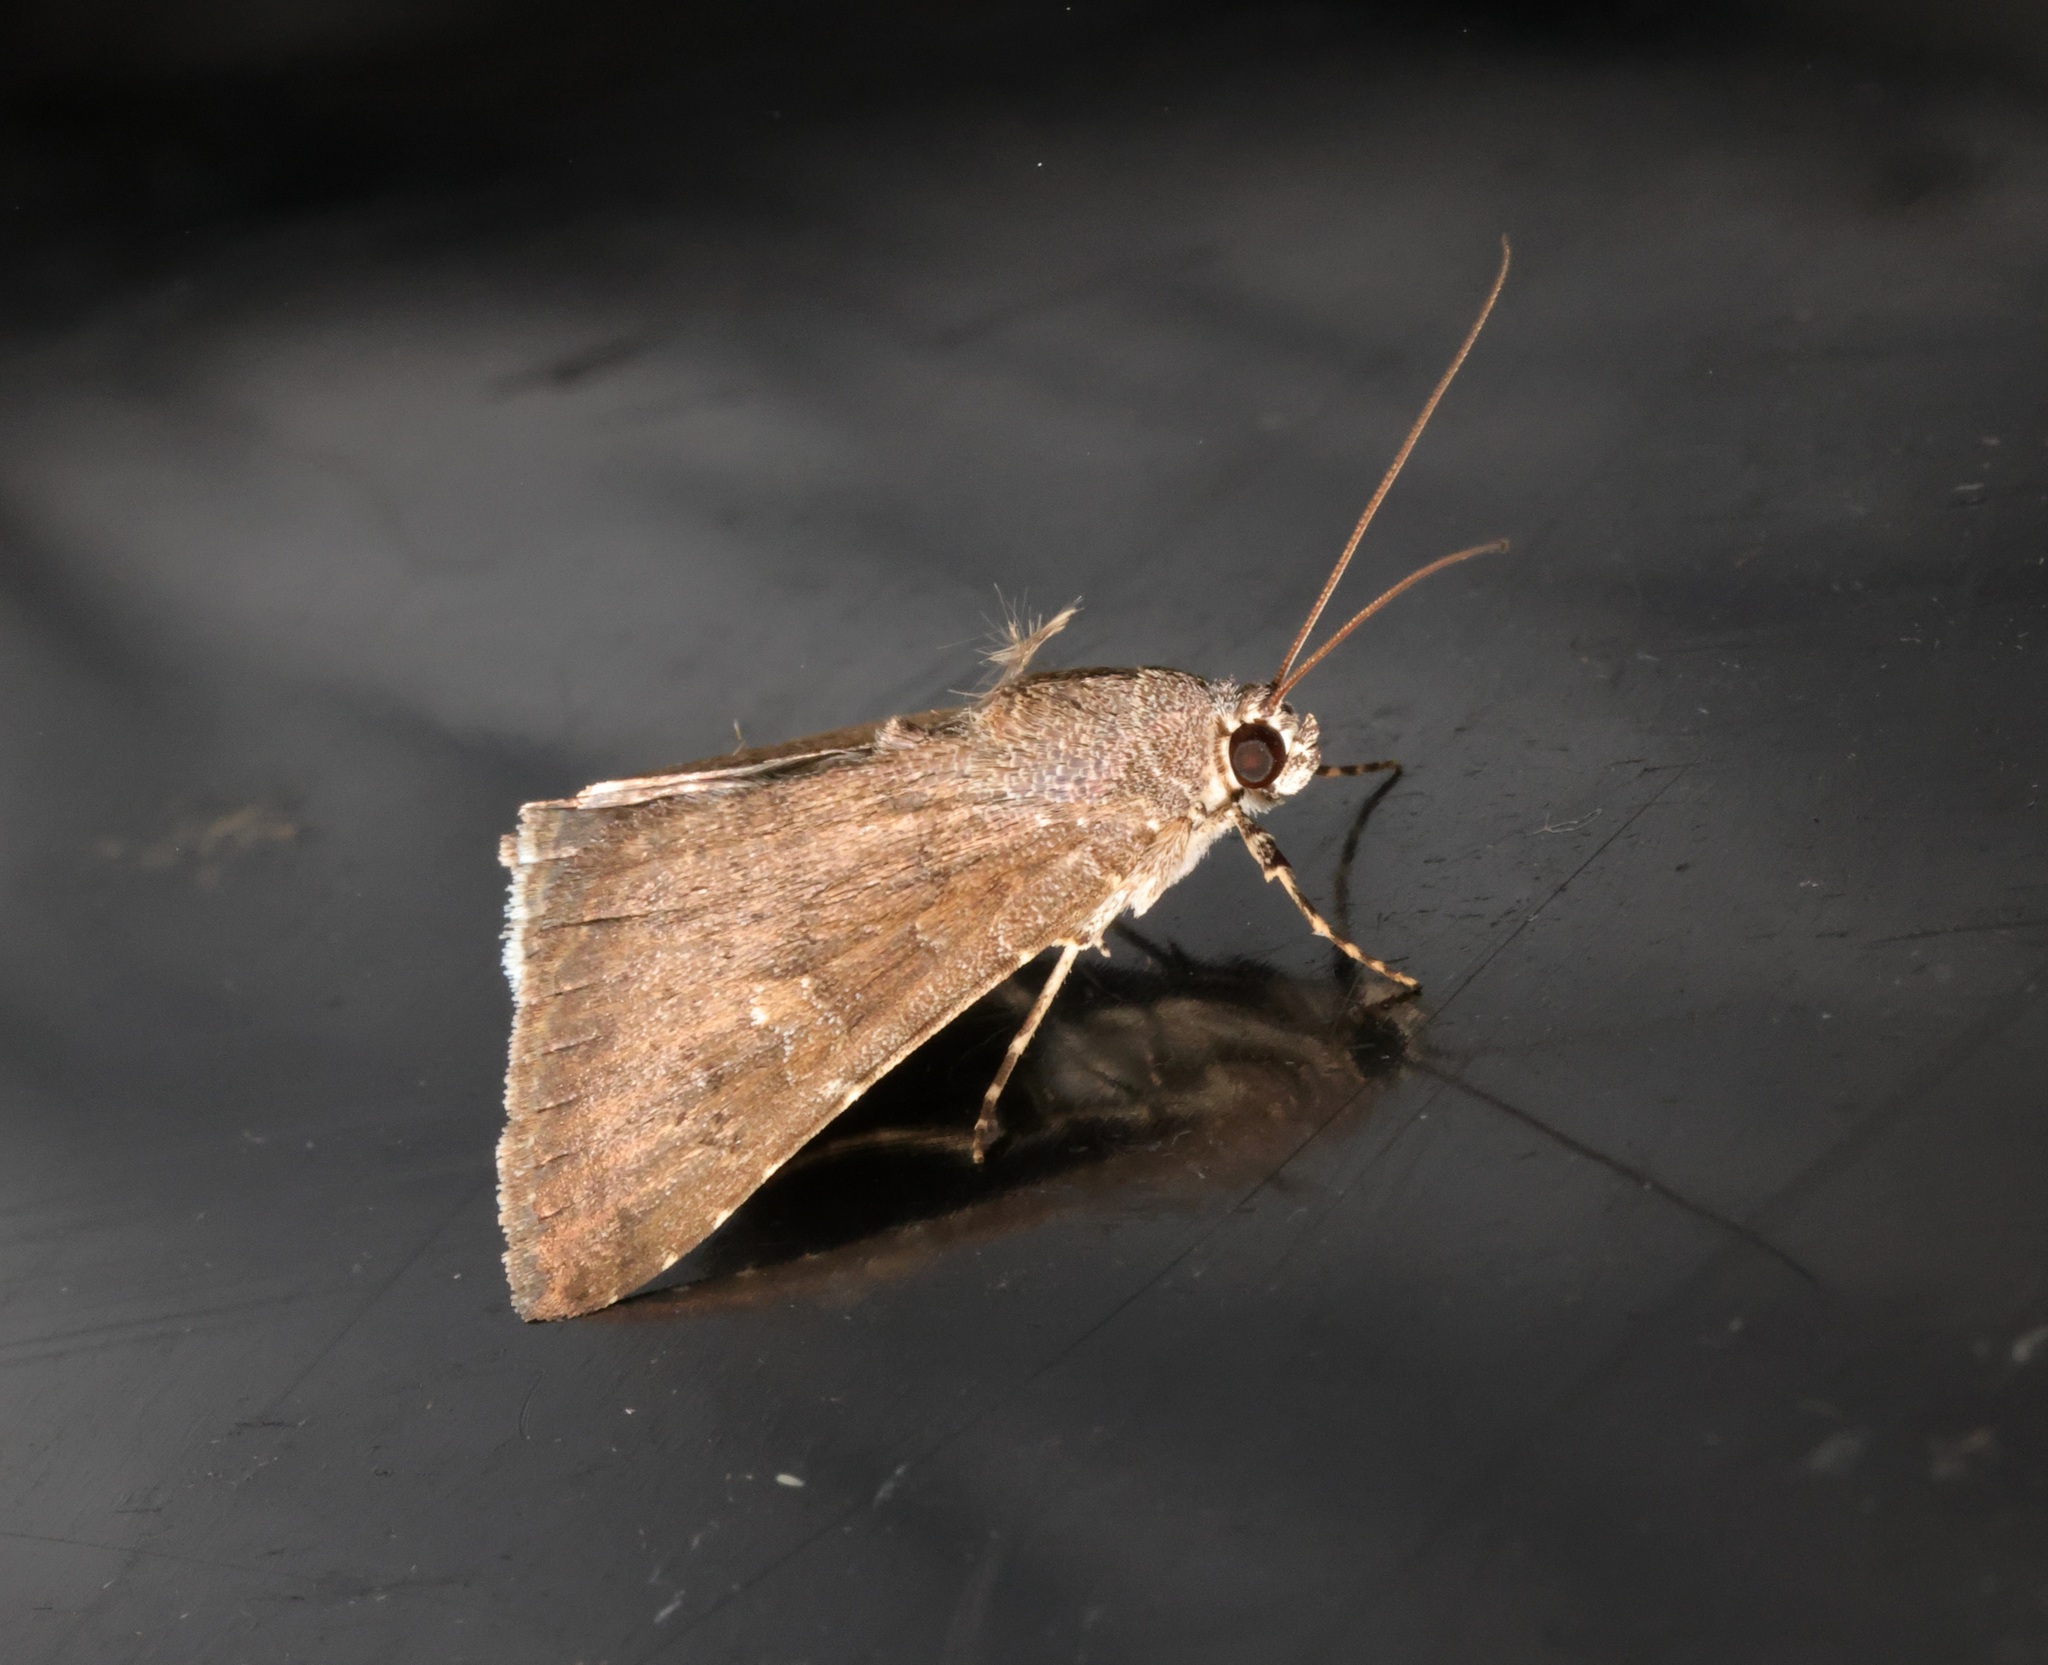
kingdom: Animalia
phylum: Arthropoda
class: Insecta
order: Lepidoptera
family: Noctuidae
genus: Amyna
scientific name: Amyna punctum
